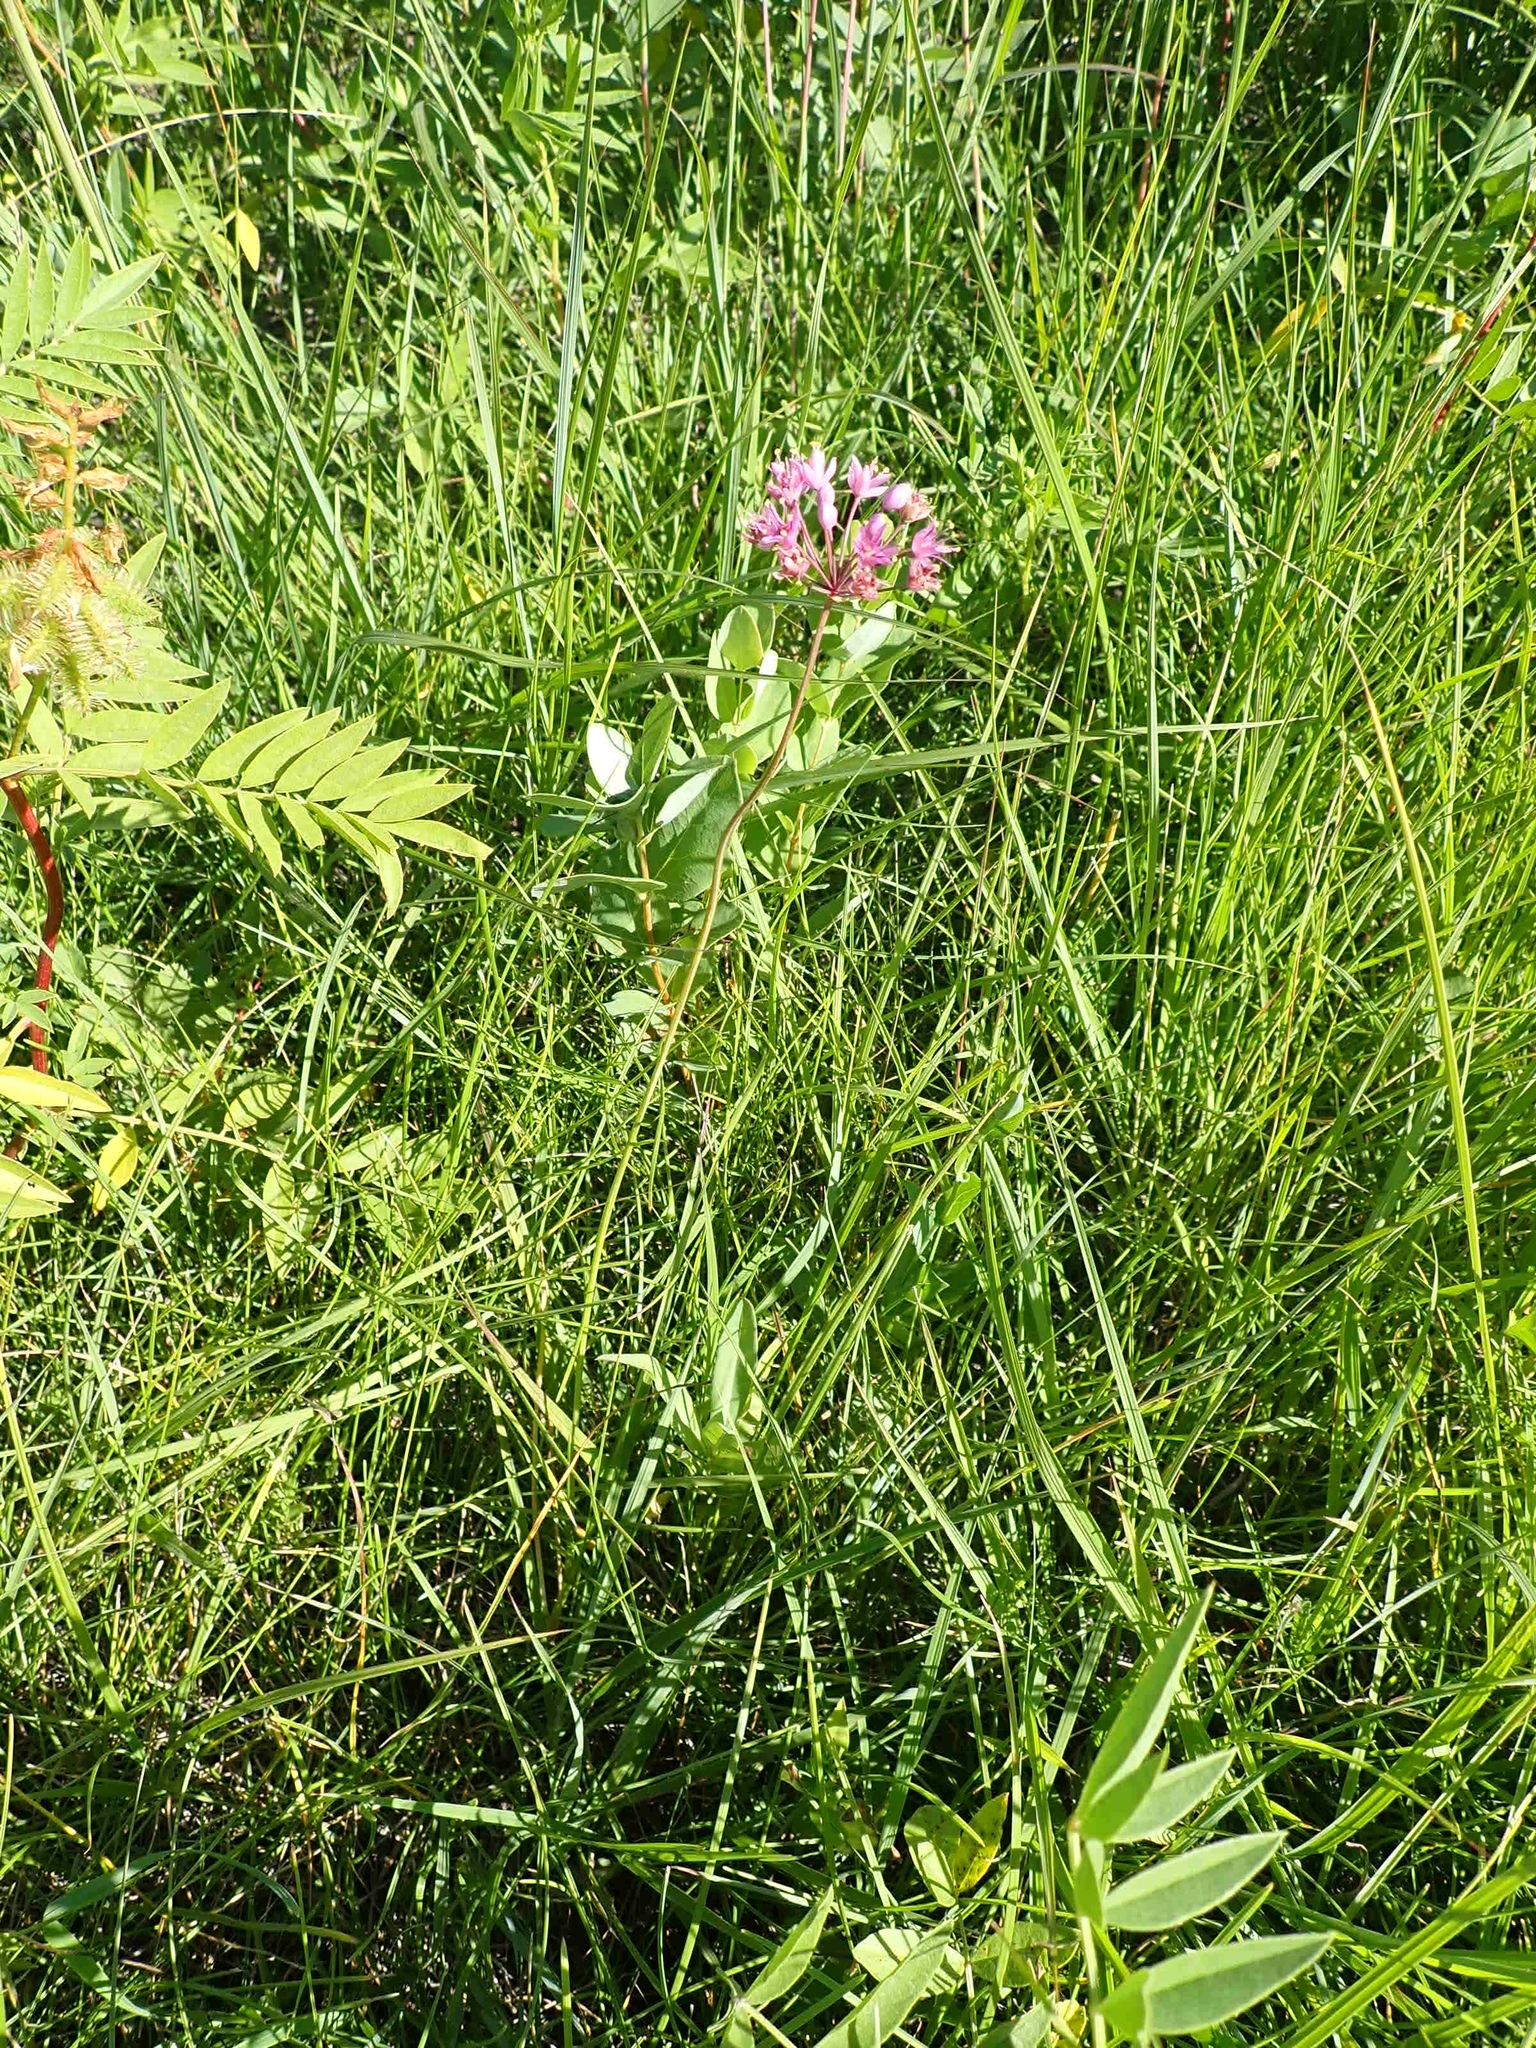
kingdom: Plantae
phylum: Tracheophyta
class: Liliopsida
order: Asparagales
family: Amaryllidaceae
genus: Allium
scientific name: Allium stellatum
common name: Autumn onion
